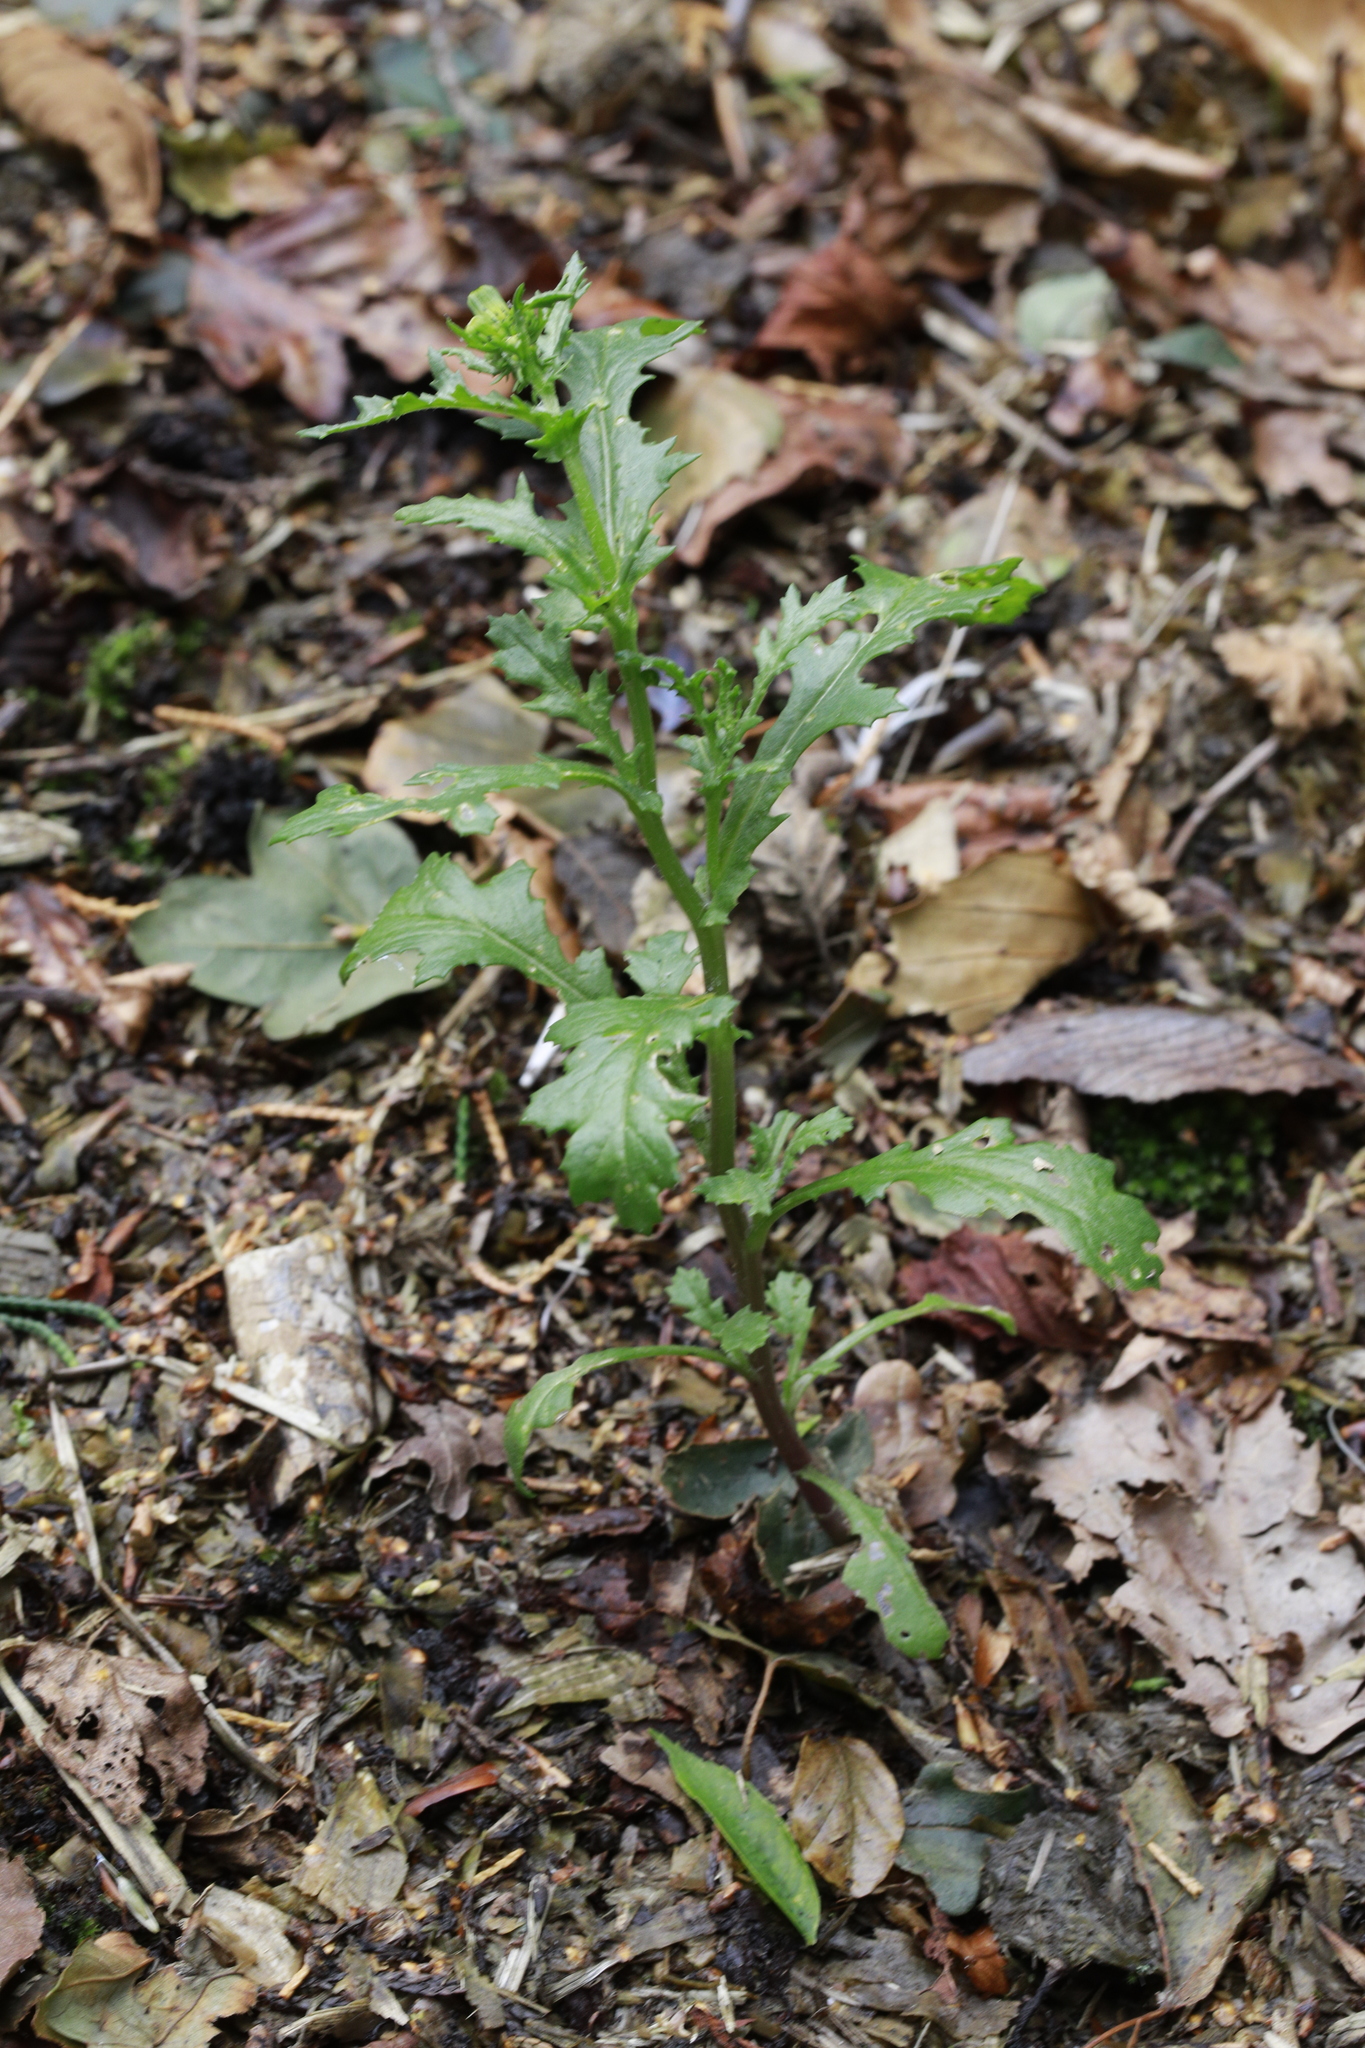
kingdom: Plantae
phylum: Tracheophyta
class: Magnoliopsida
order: Asterales
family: Asteraceae
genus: Senecio
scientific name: Senecio vulgaris
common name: Old-man-in-the-spring
